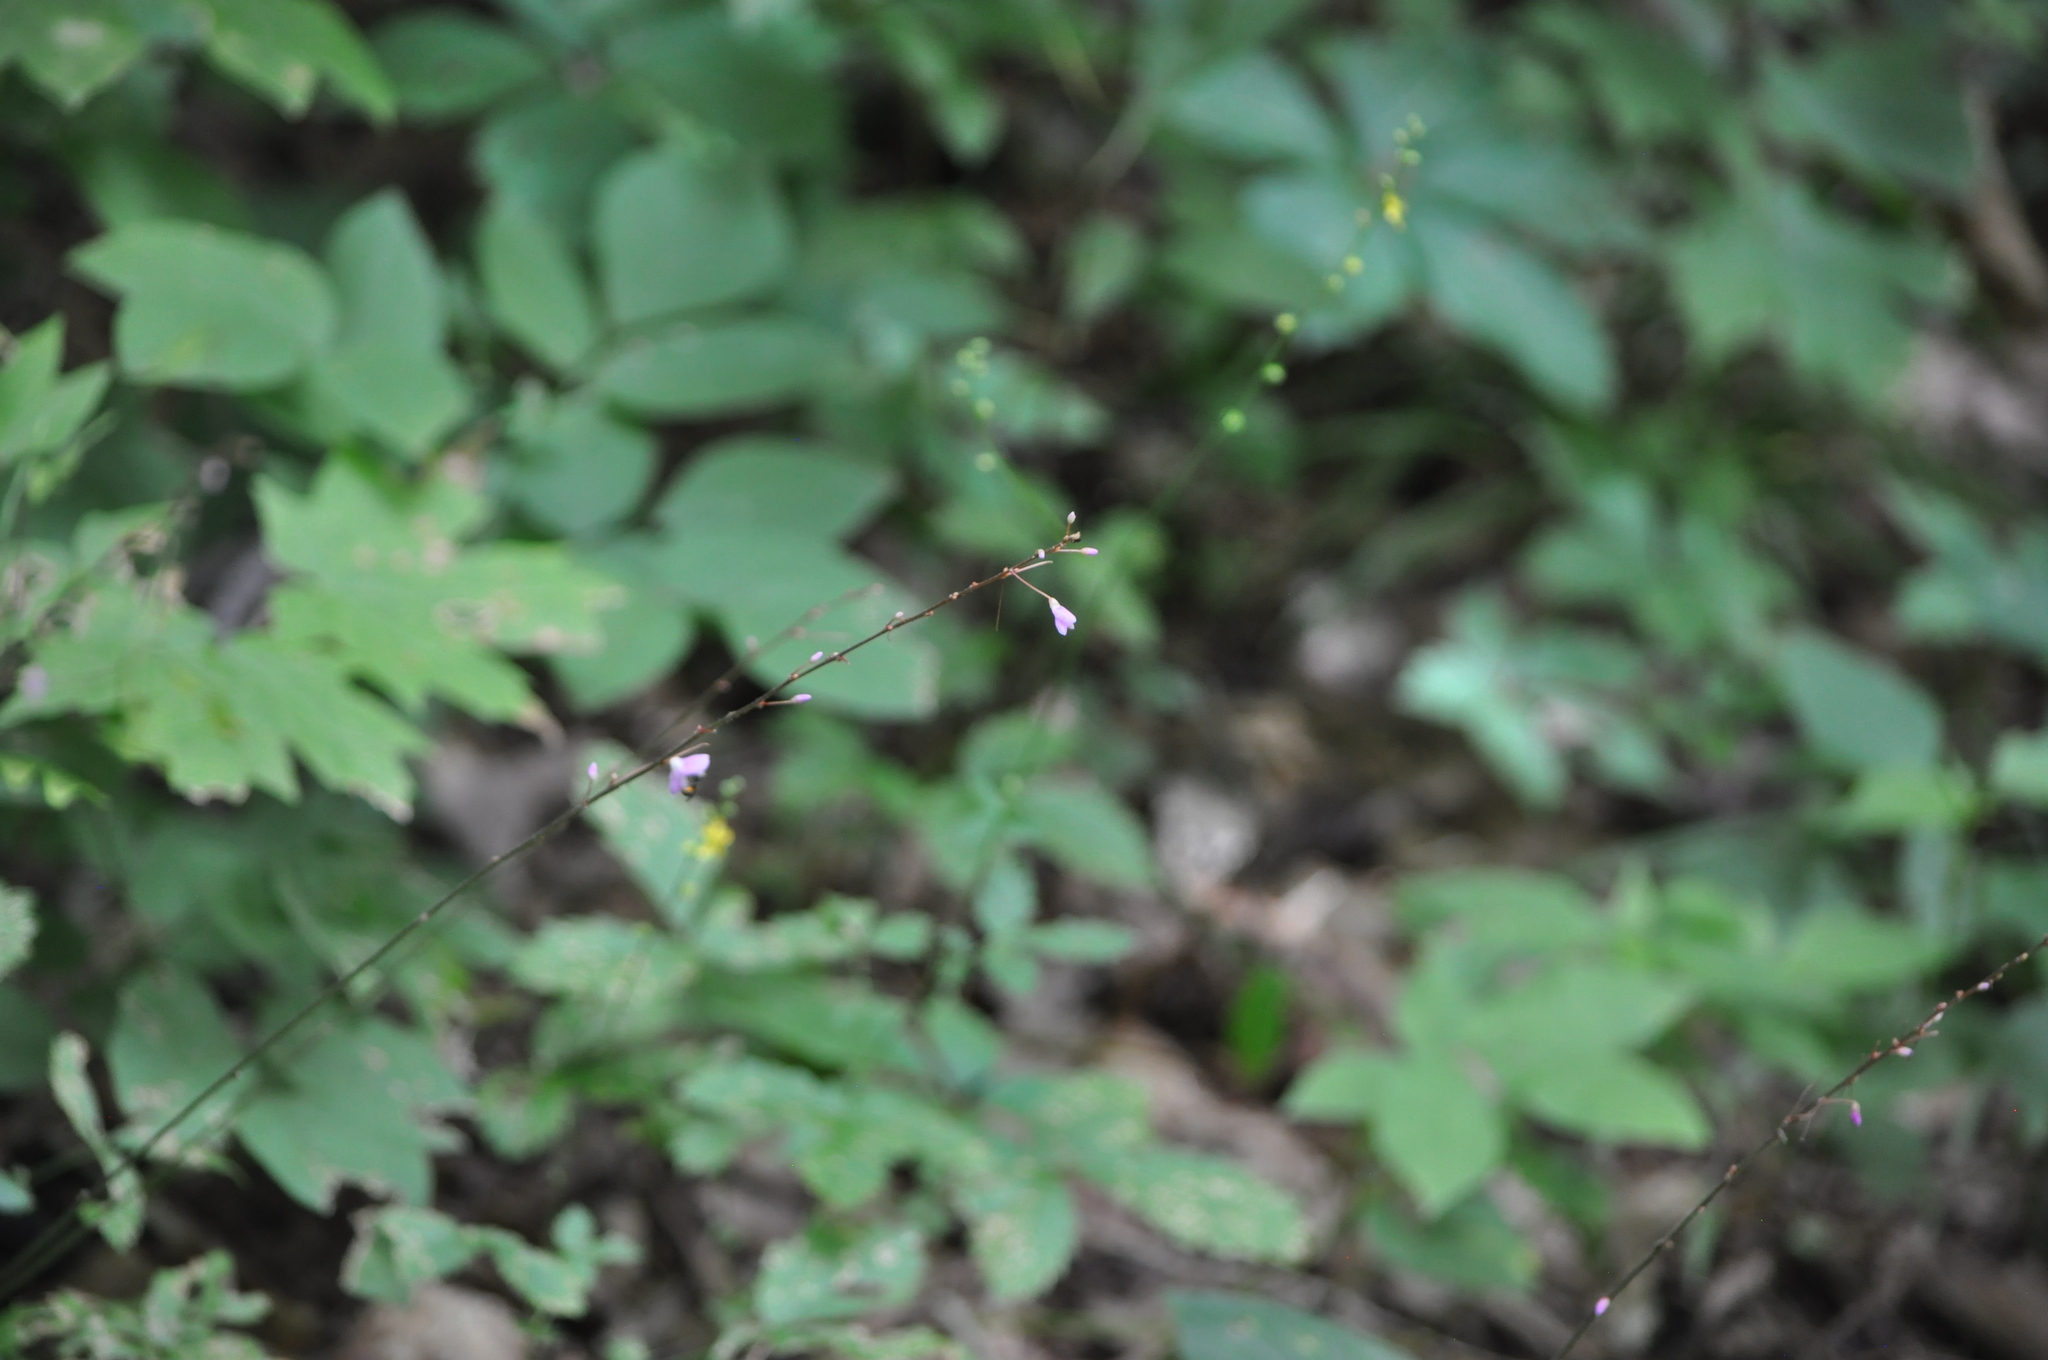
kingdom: Plantae
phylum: Tracheophyta
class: Magnoliopsida
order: Fabales
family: Fabaceae
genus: Hylodesmum
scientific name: Hylodesmum nudiflorum
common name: Bare-stemmed tick-trefoil
